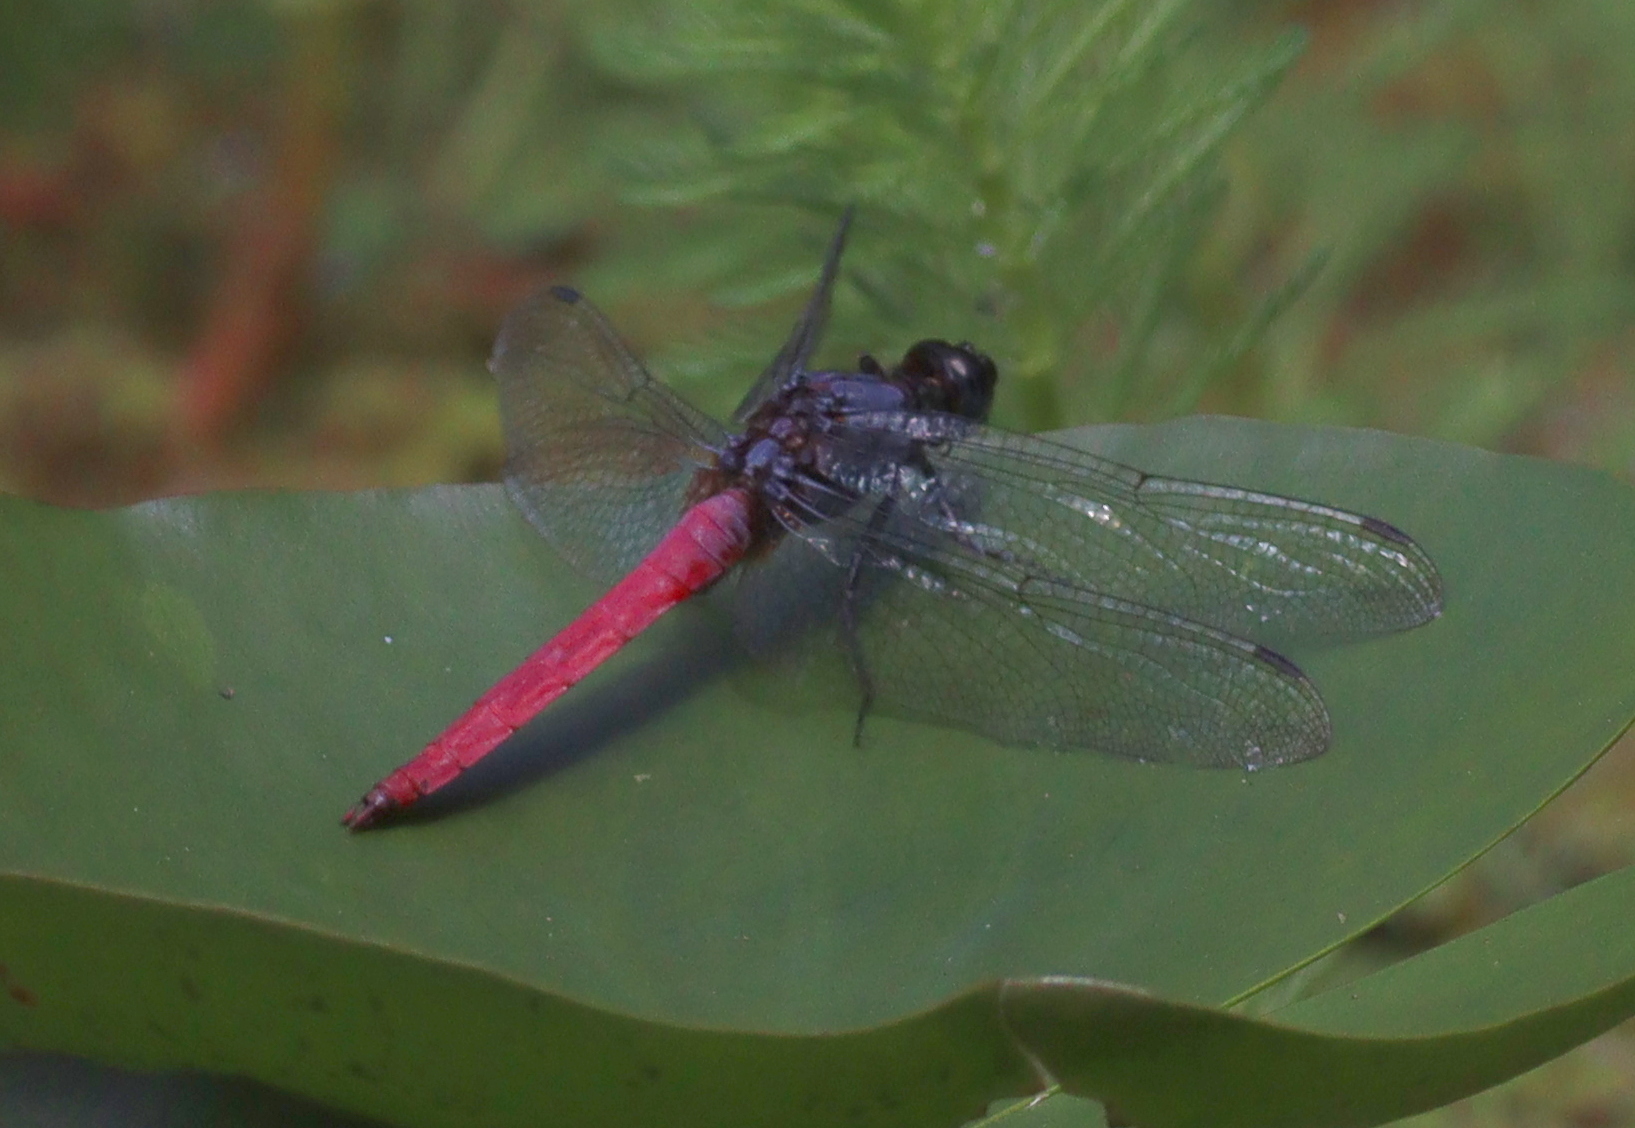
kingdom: Animalia
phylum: Arthropoda
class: Insecta
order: Odonata
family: Libellulidae
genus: Orthetrum
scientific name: Orthetrum pruinosum
